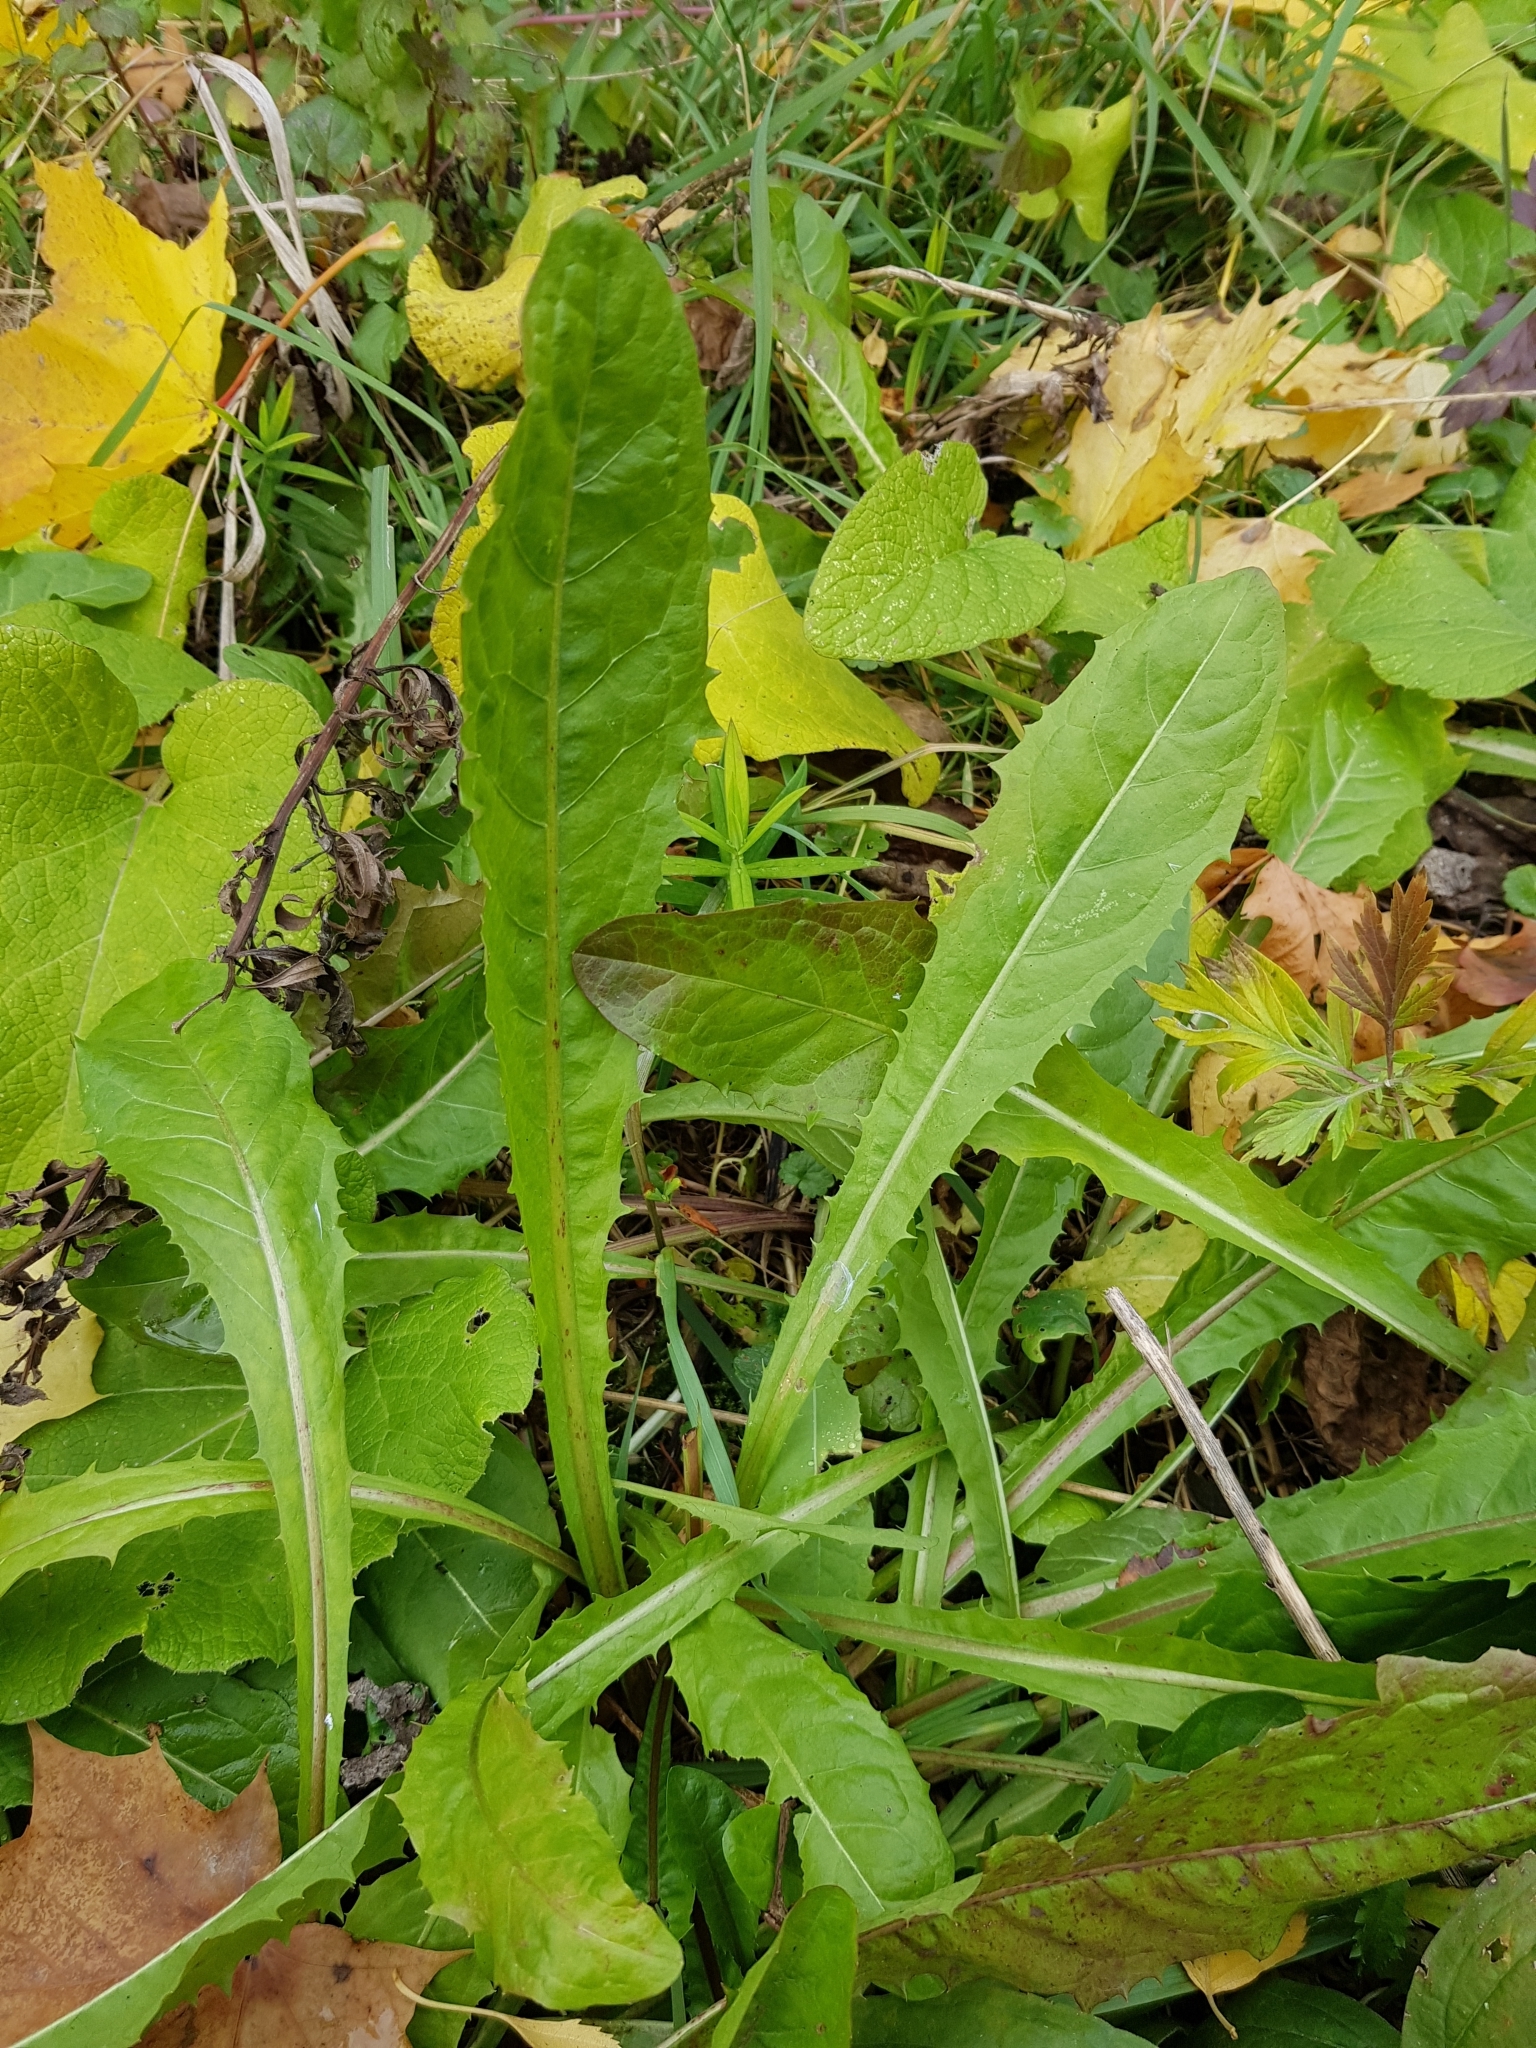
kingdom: Plantae
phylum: Tracheophyta
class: Magnoliopsida
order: Asterales
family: Asteraceae
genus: Taraxacum
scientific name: Taraxacum officinale
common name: Common dandelion
